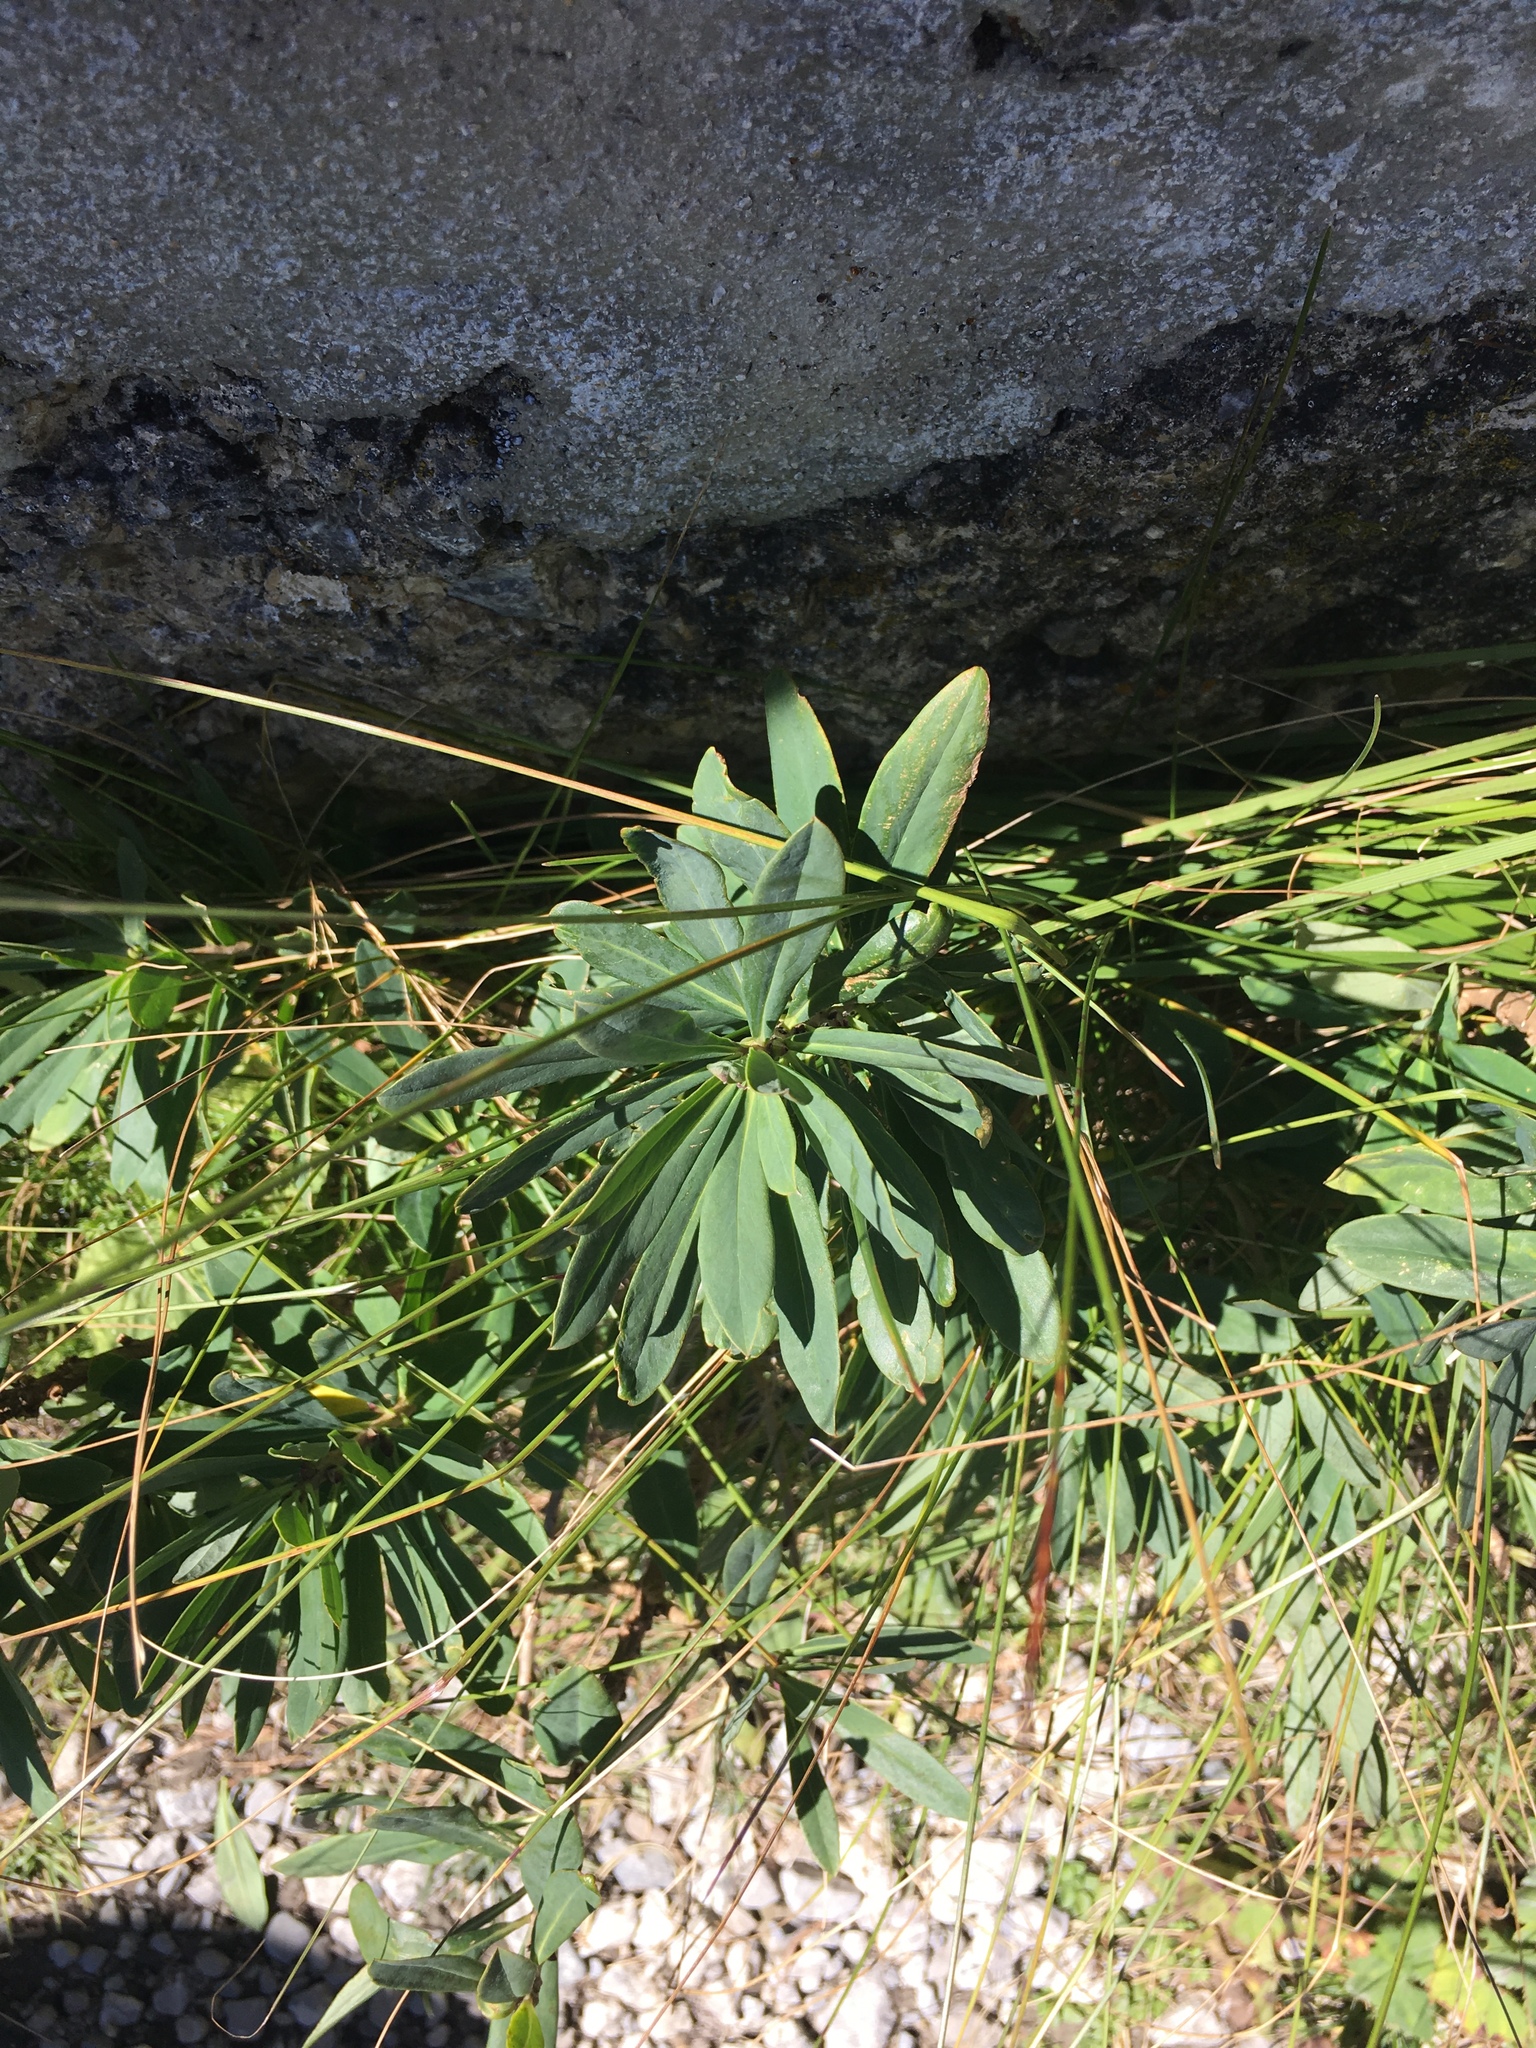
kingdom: Plantae
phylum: Tracheophyta
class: Magnoliopsida
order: Malvales
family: Thymelaeaceae
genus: Daphne
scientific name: Daphne mezereum
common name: Mezereon
